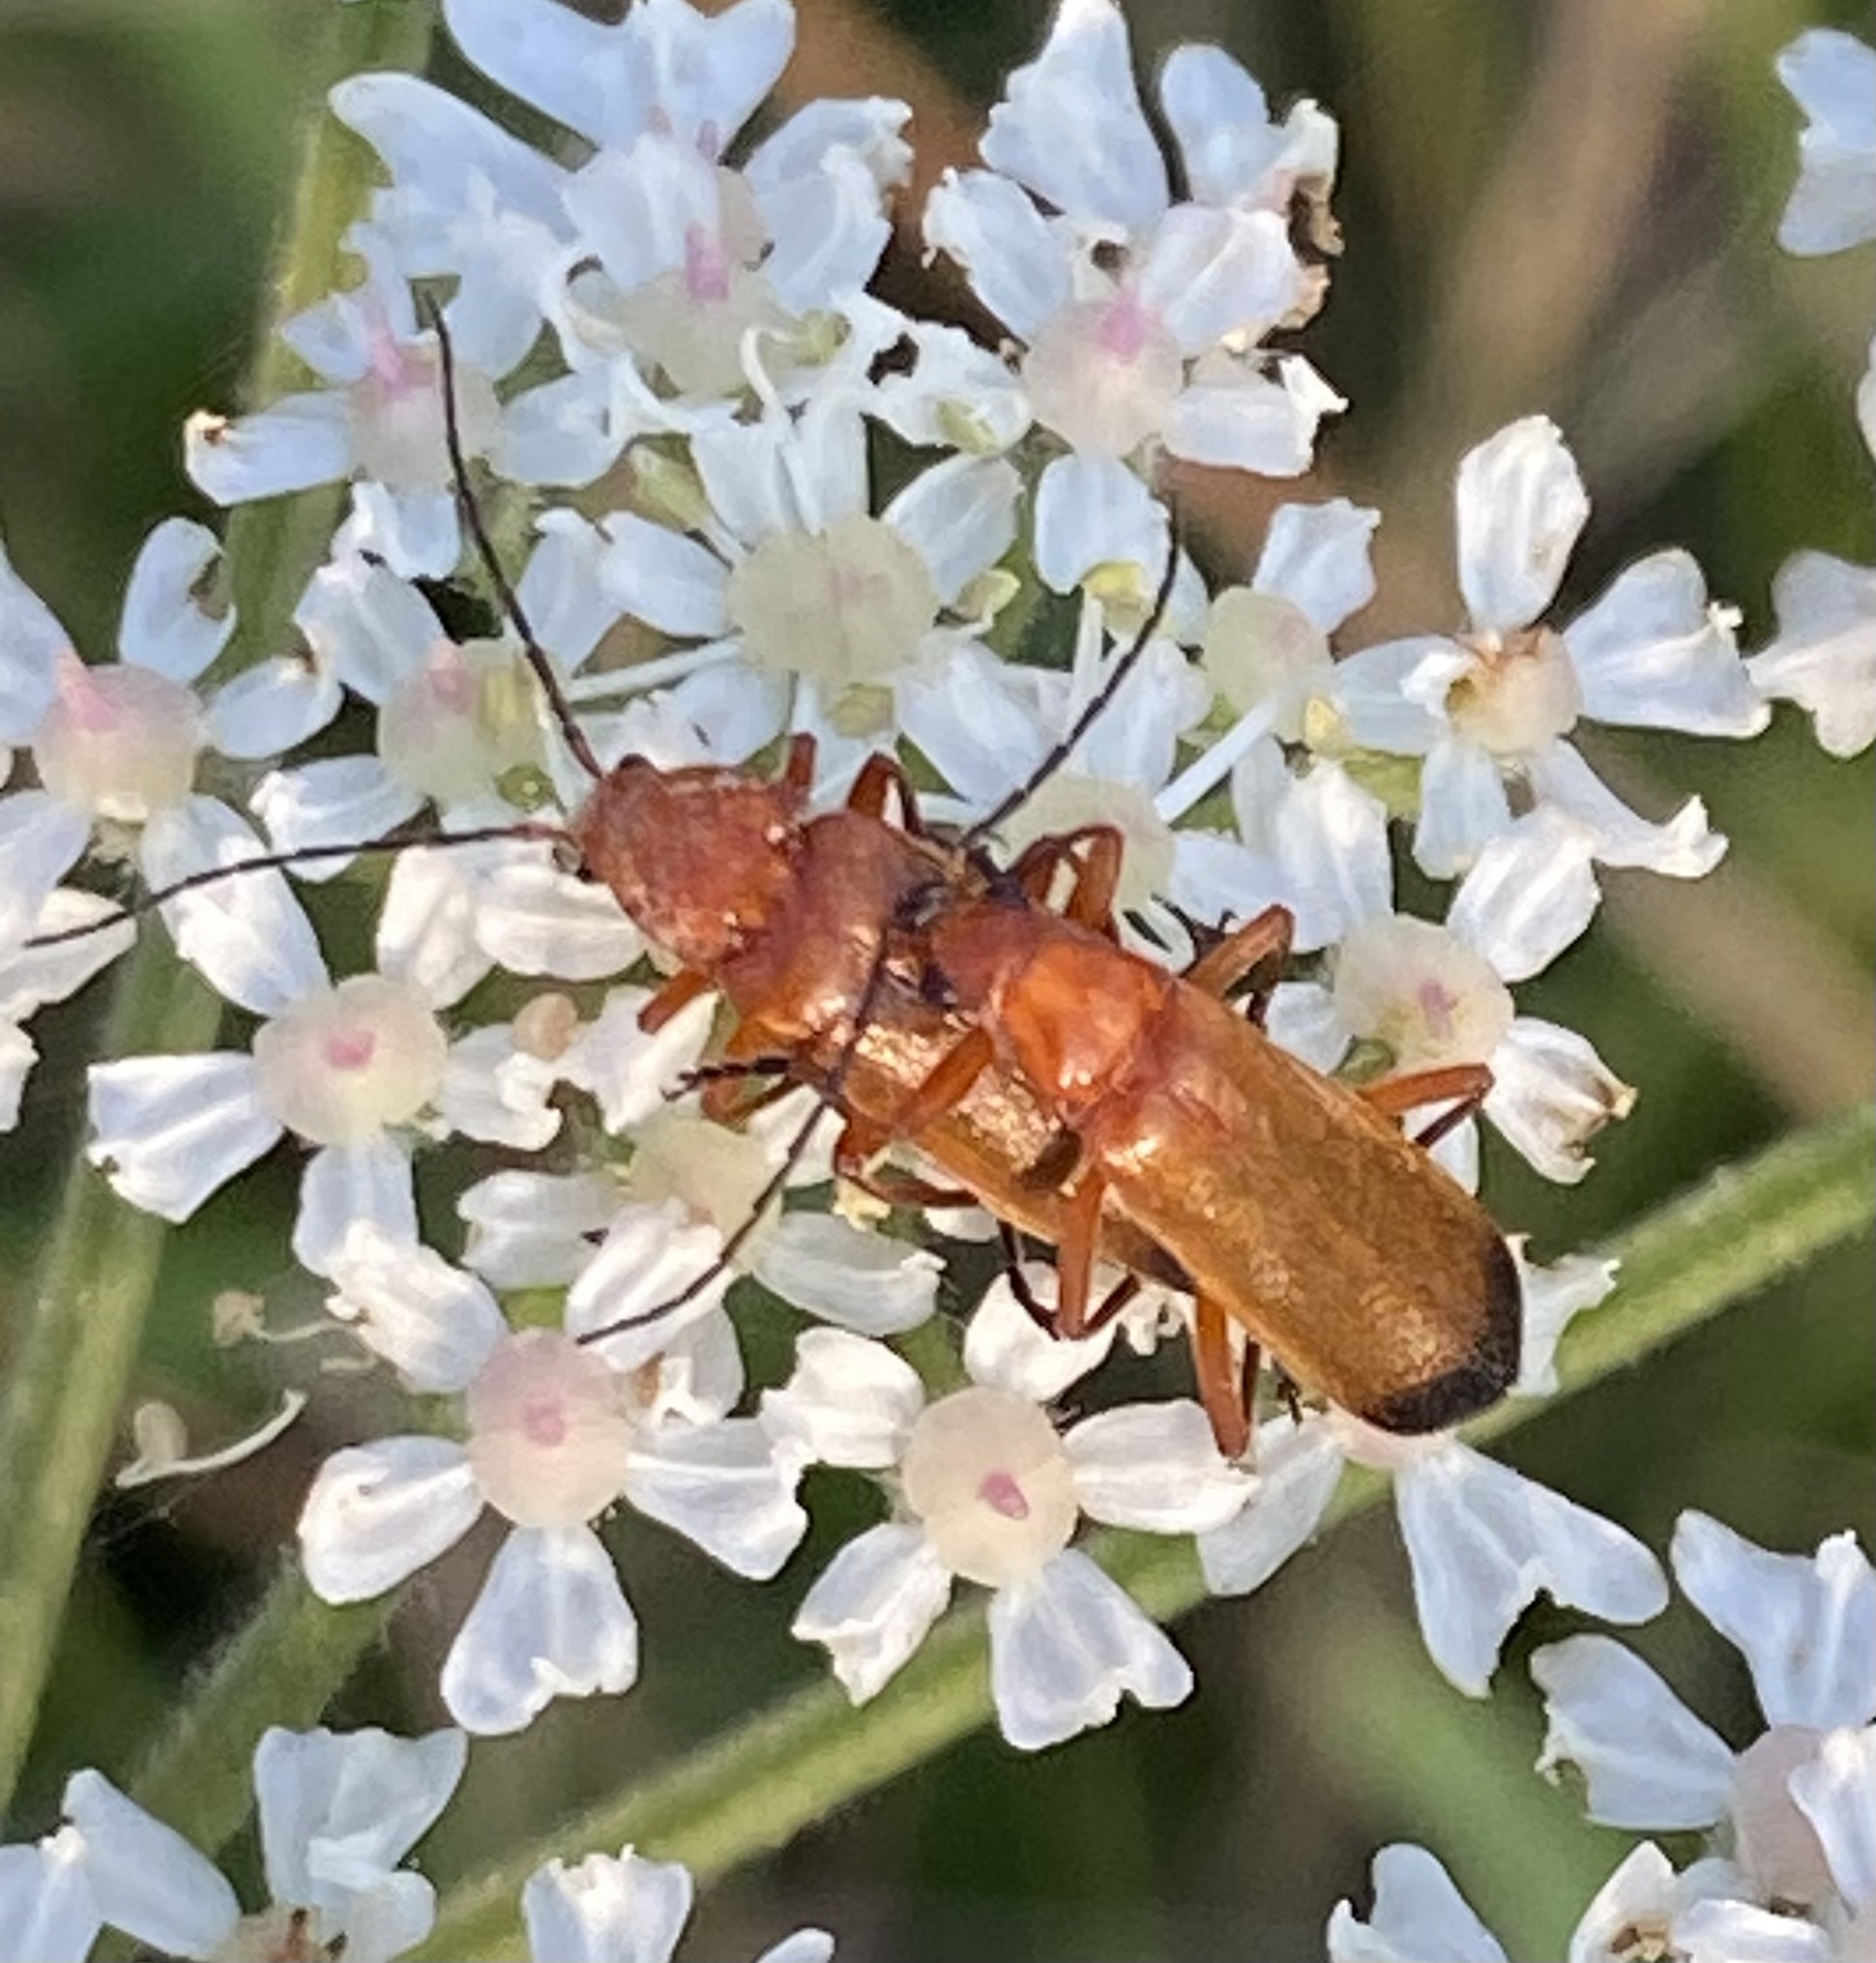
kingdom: Animalia
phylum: Arthropoda
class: Insecta
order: Coleoptera
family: Cantharidae
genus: Rhagonycha
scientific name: Rhagonycha fulva
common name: Common red soldier beetle
